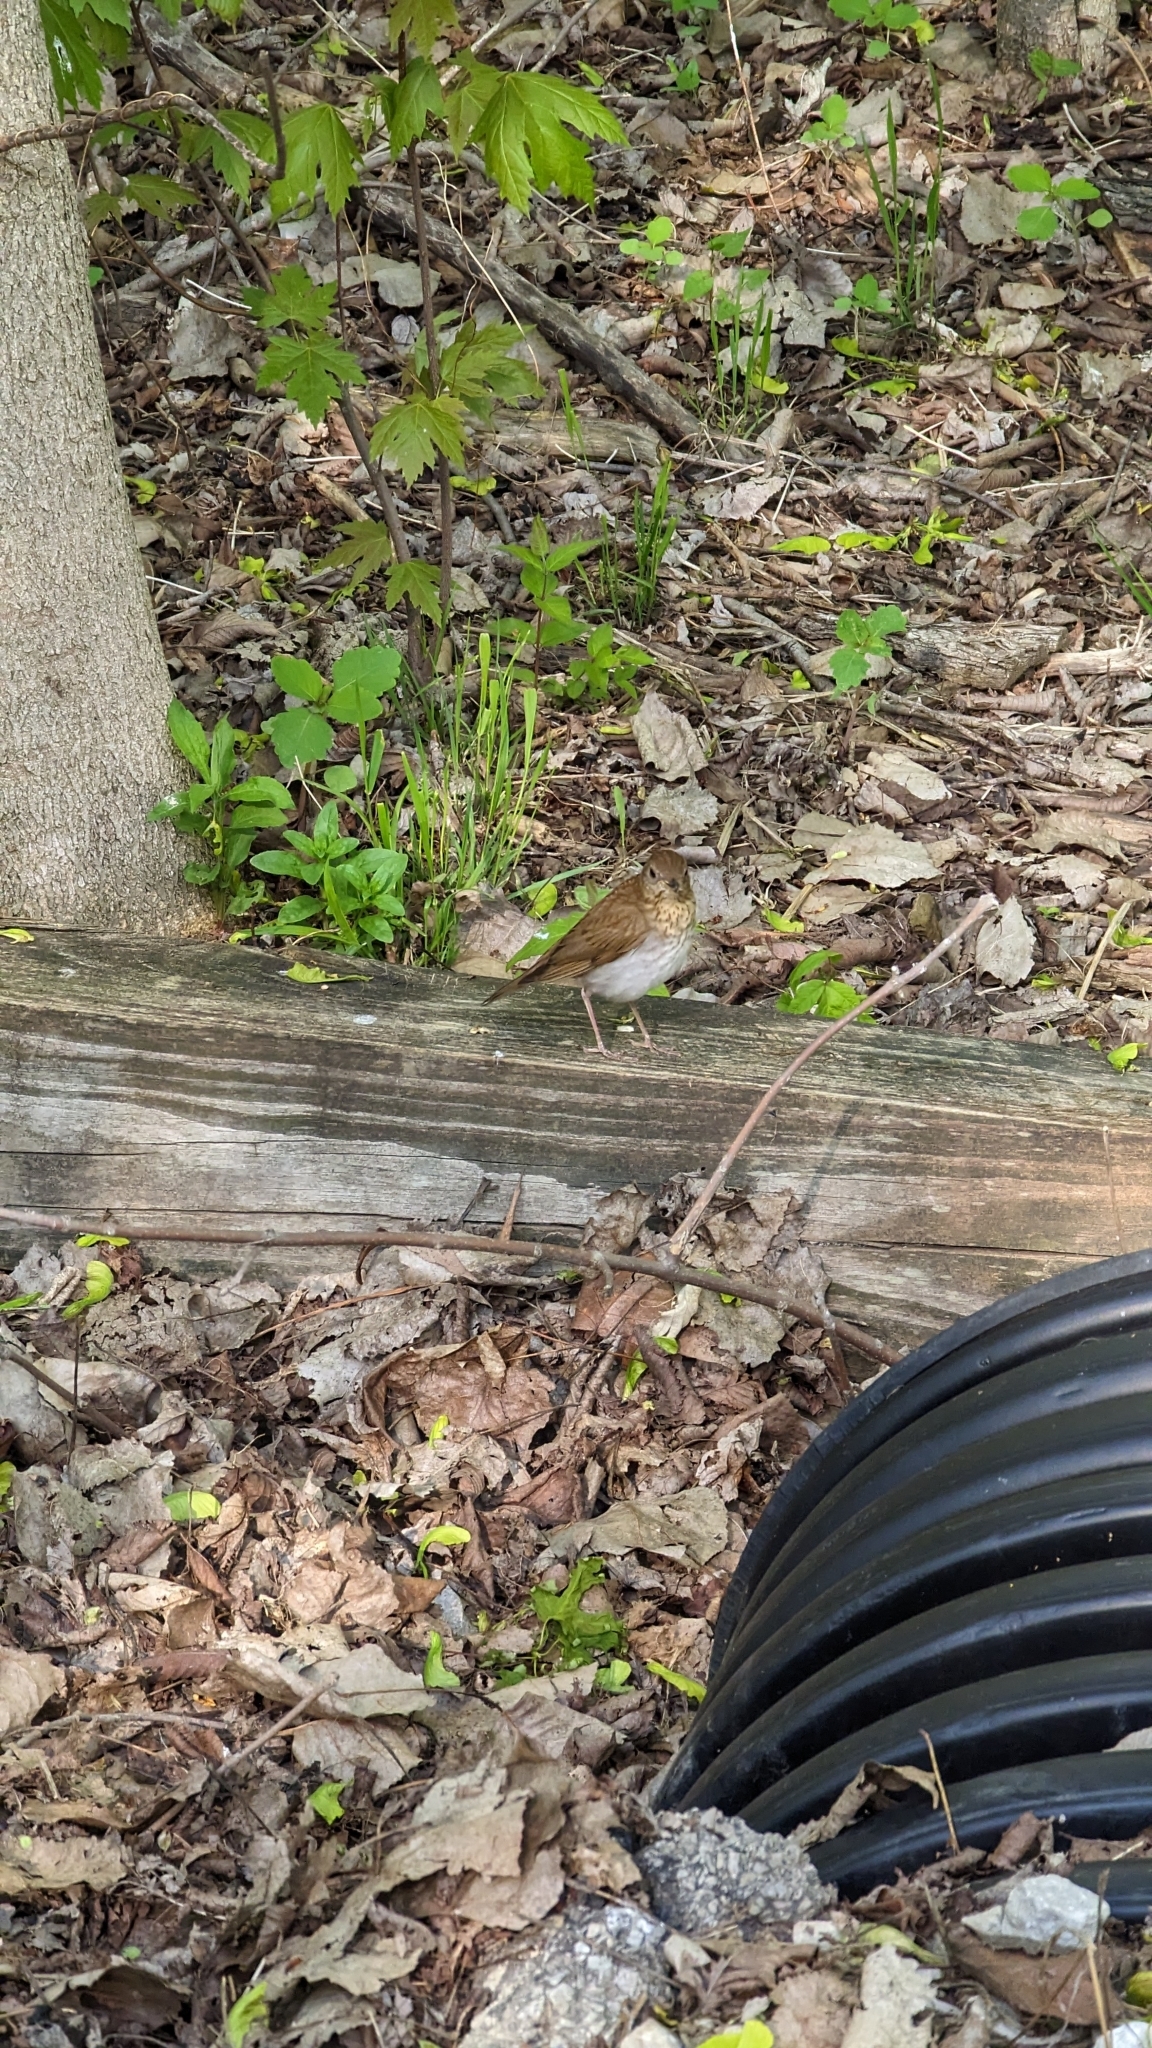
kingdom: Animalia
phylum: Chordata
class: Aves
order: Passeriformes
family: Turdidae
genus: Catharus
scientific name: Catharus fuscescens
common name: Veery
